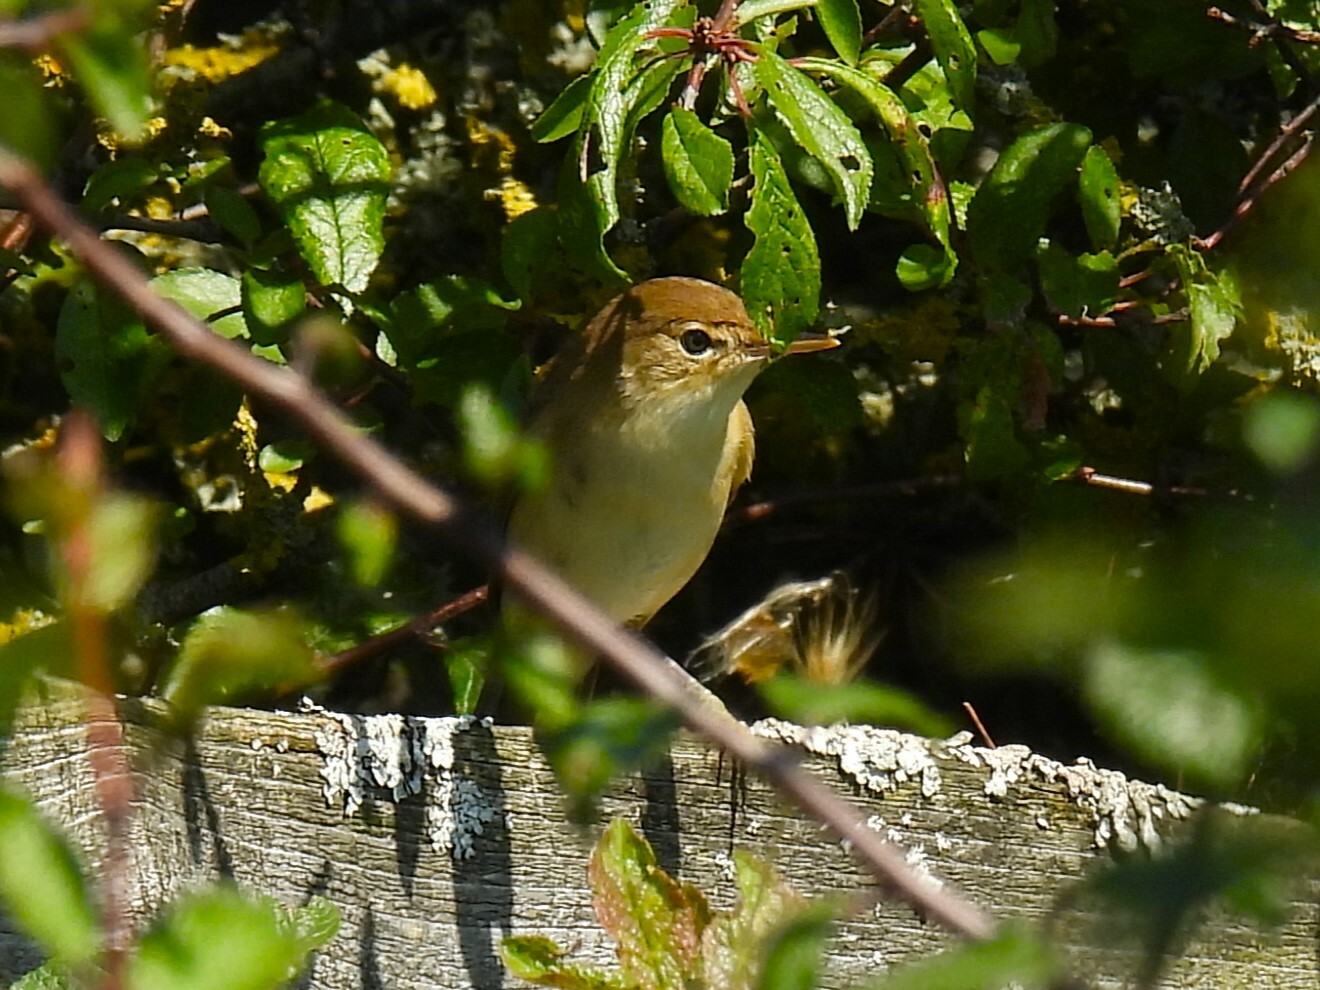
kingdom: Animalia
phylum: Chordata
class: Aves
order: Passeriformes
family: Acrocephalidae
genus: Acrocephalus
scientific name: Acrocephalus scirpaceus
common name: Eurasian reed warbler
